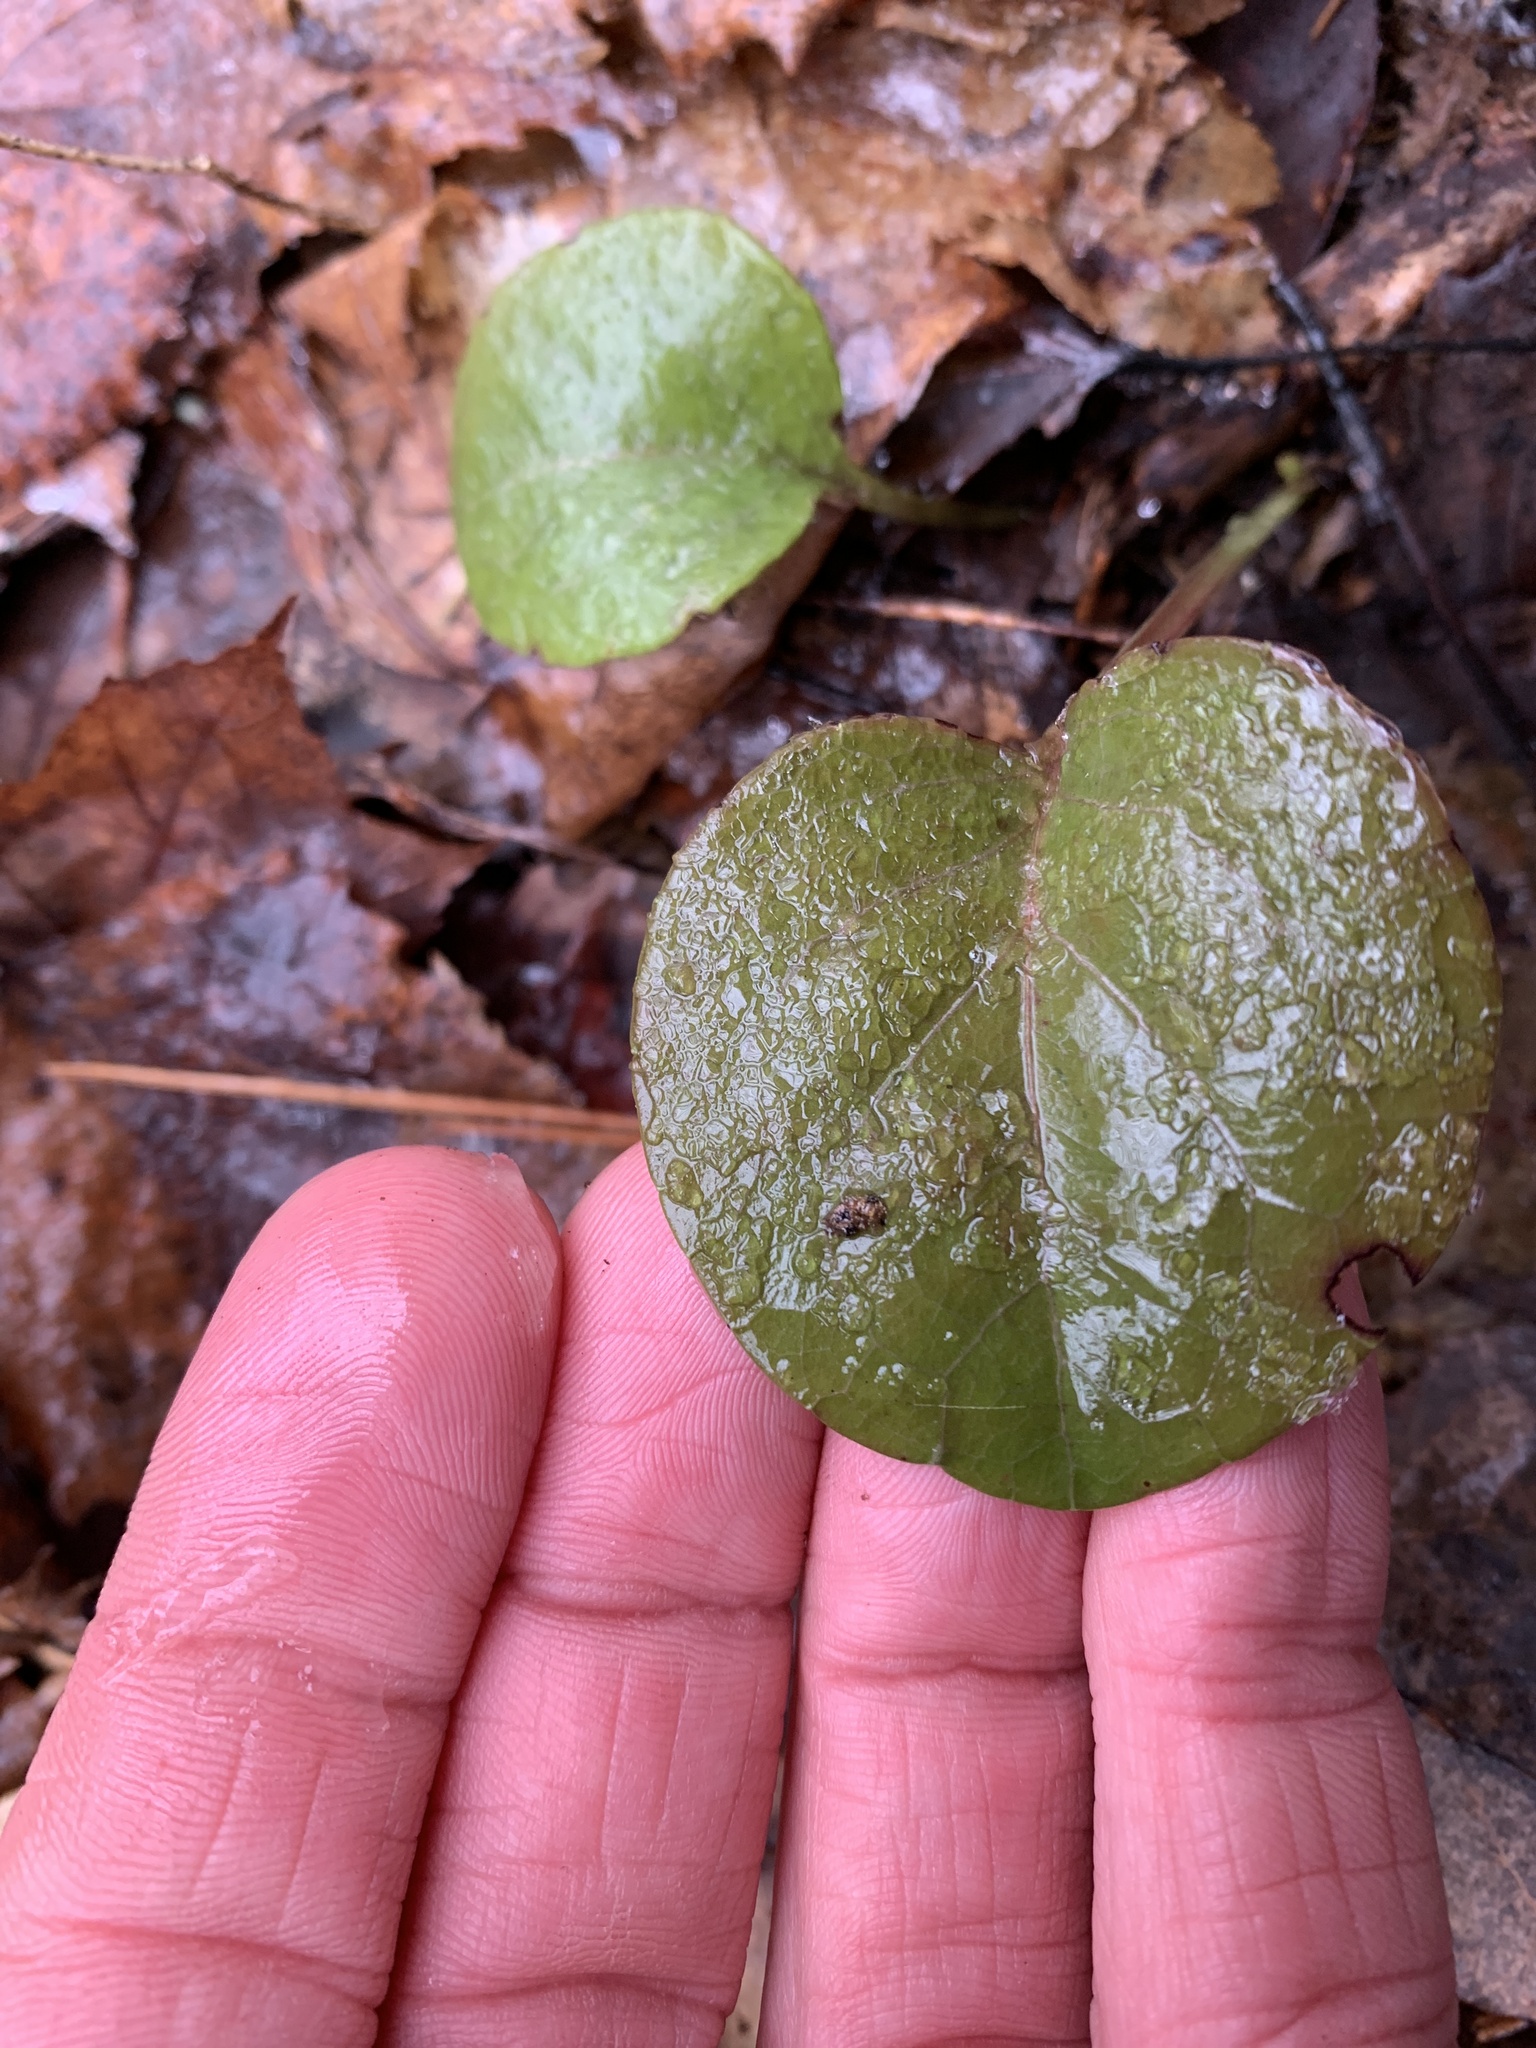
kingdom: Plantae
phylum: Tracheophyta
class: Magnoliopsida
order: Ericales
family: Ericaceae
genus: Pyrola
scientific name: Pyrola americana
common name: American wintergreen
